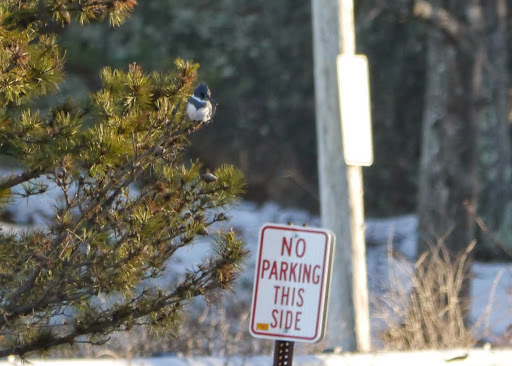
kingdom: Animalia
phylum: Chordata
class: Aves
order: Coraciiformes
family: Alcedinidae
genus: Megaceryle
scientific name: Megaceryle alcyon
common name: Belted kingfisher
